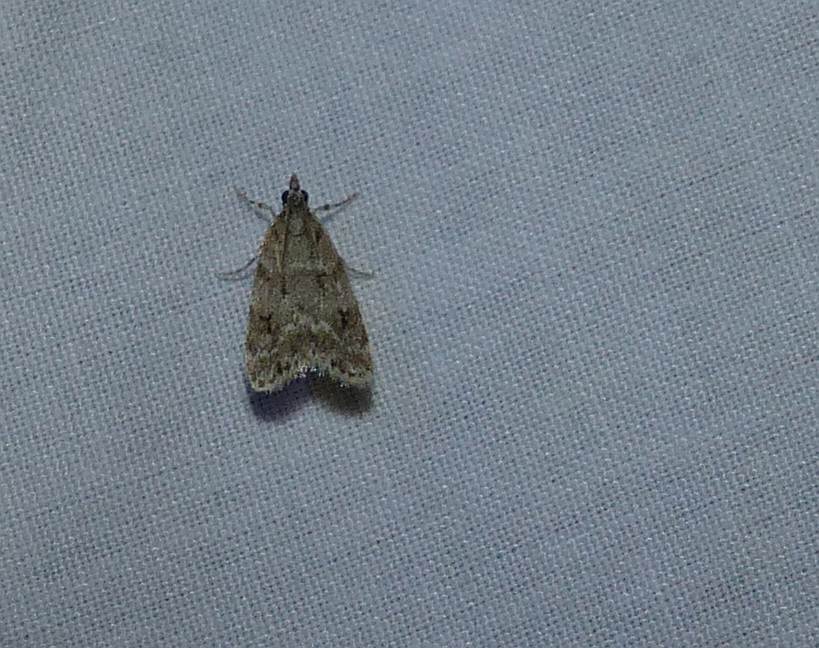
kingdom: Animalia
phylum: Arthropoda
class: Insecta
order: Lepidoptera
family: Crambidae
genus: Eudonia
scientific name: Eudonia strigalis
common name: Striped eudonia moth
